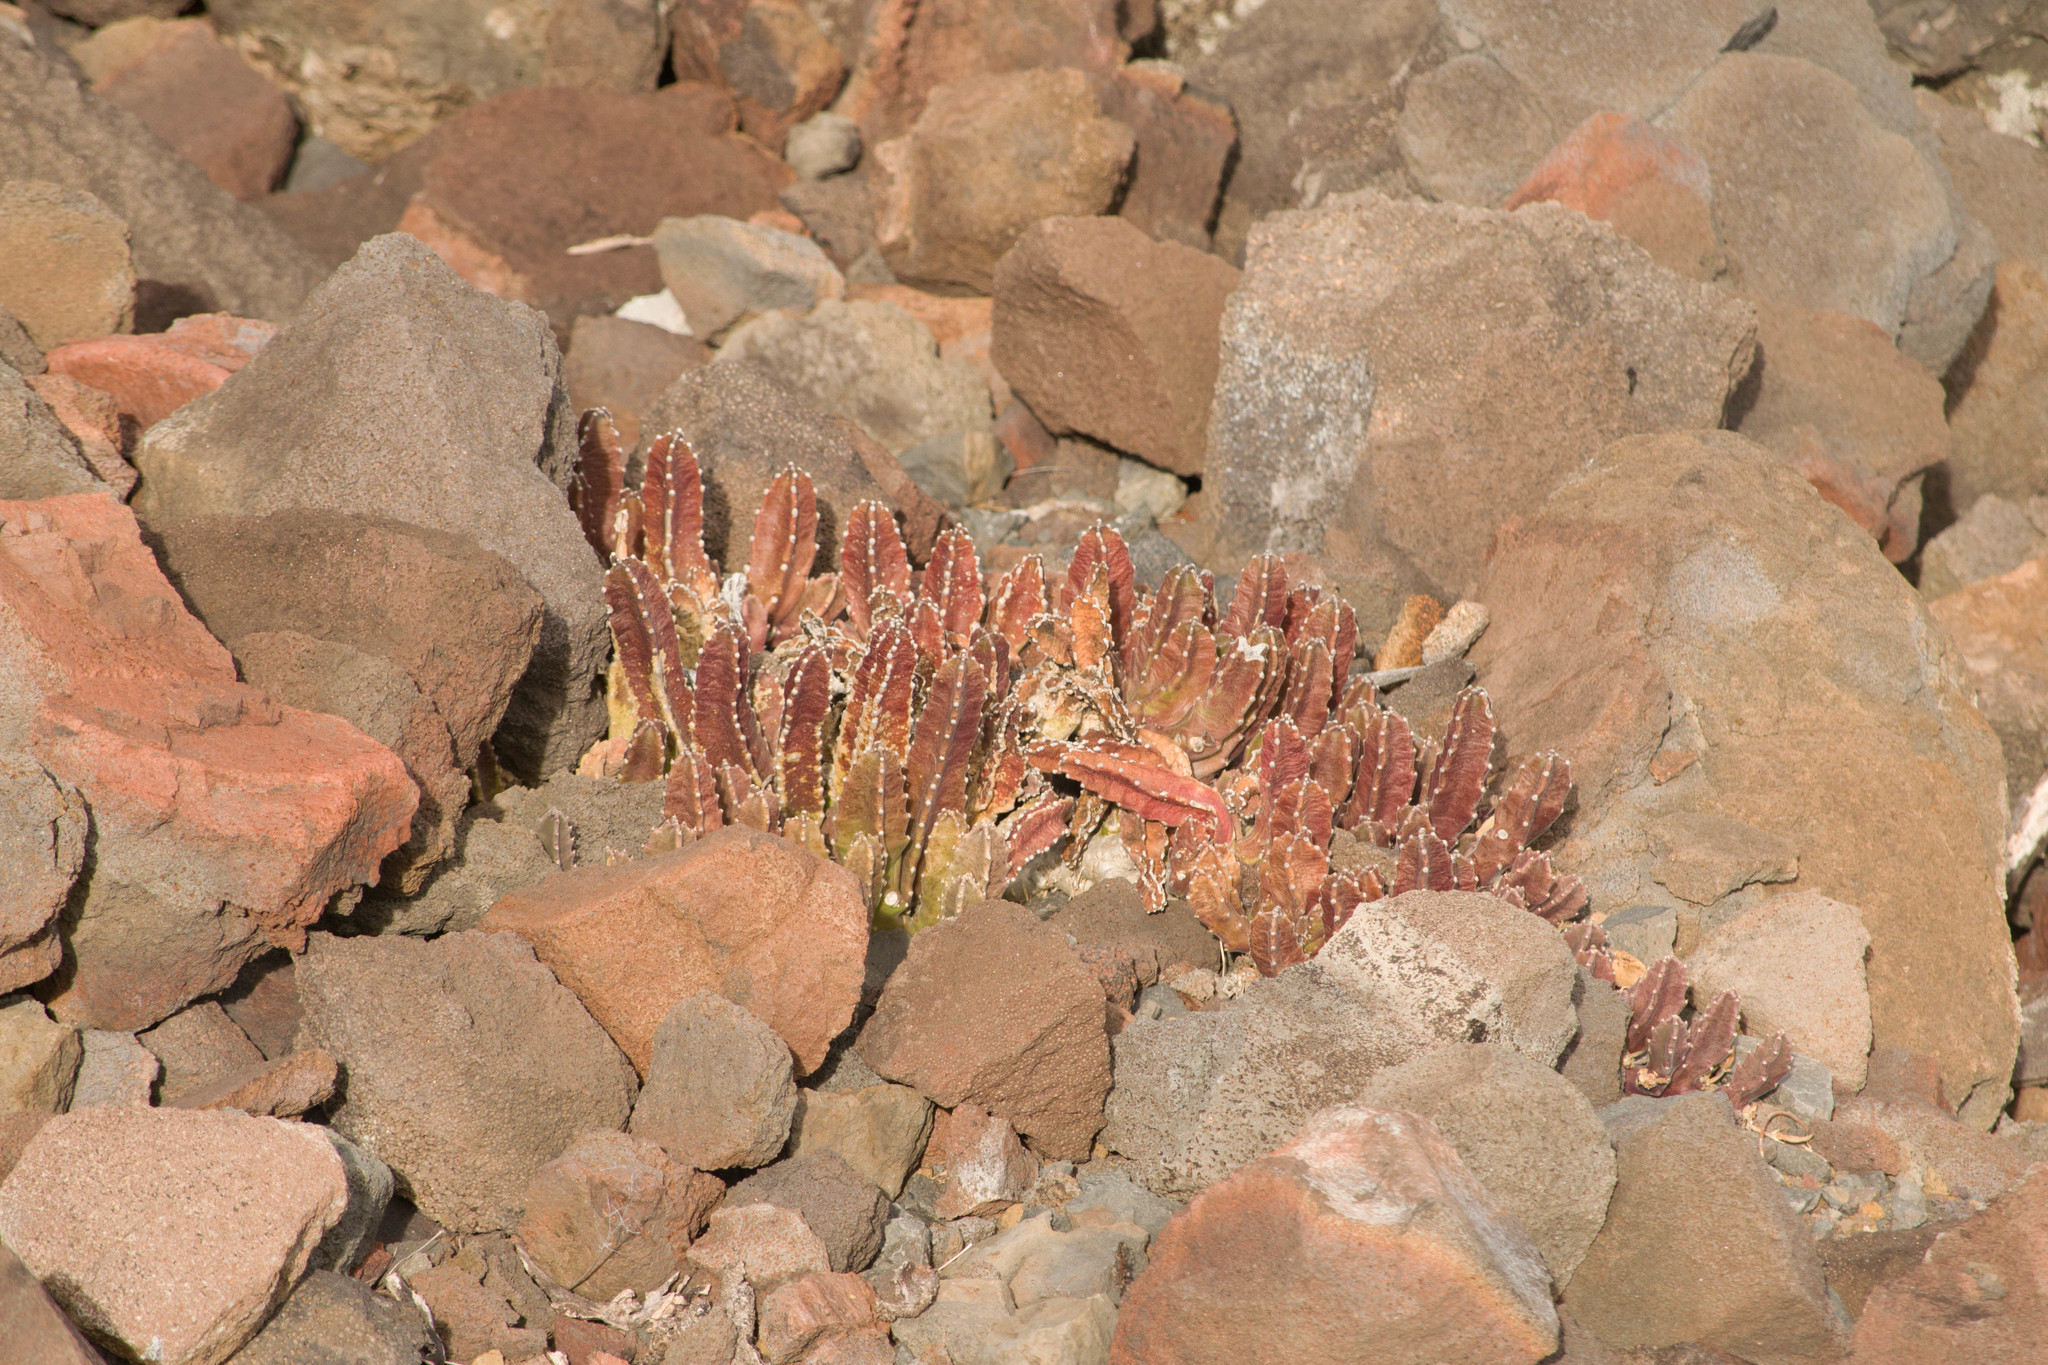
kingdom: Plantae
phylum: Tracheophyta
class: Magnoliopsida
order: Gentianales
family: Apocynaceae
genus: Ceropegia
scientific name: Ceropegia gigantea
